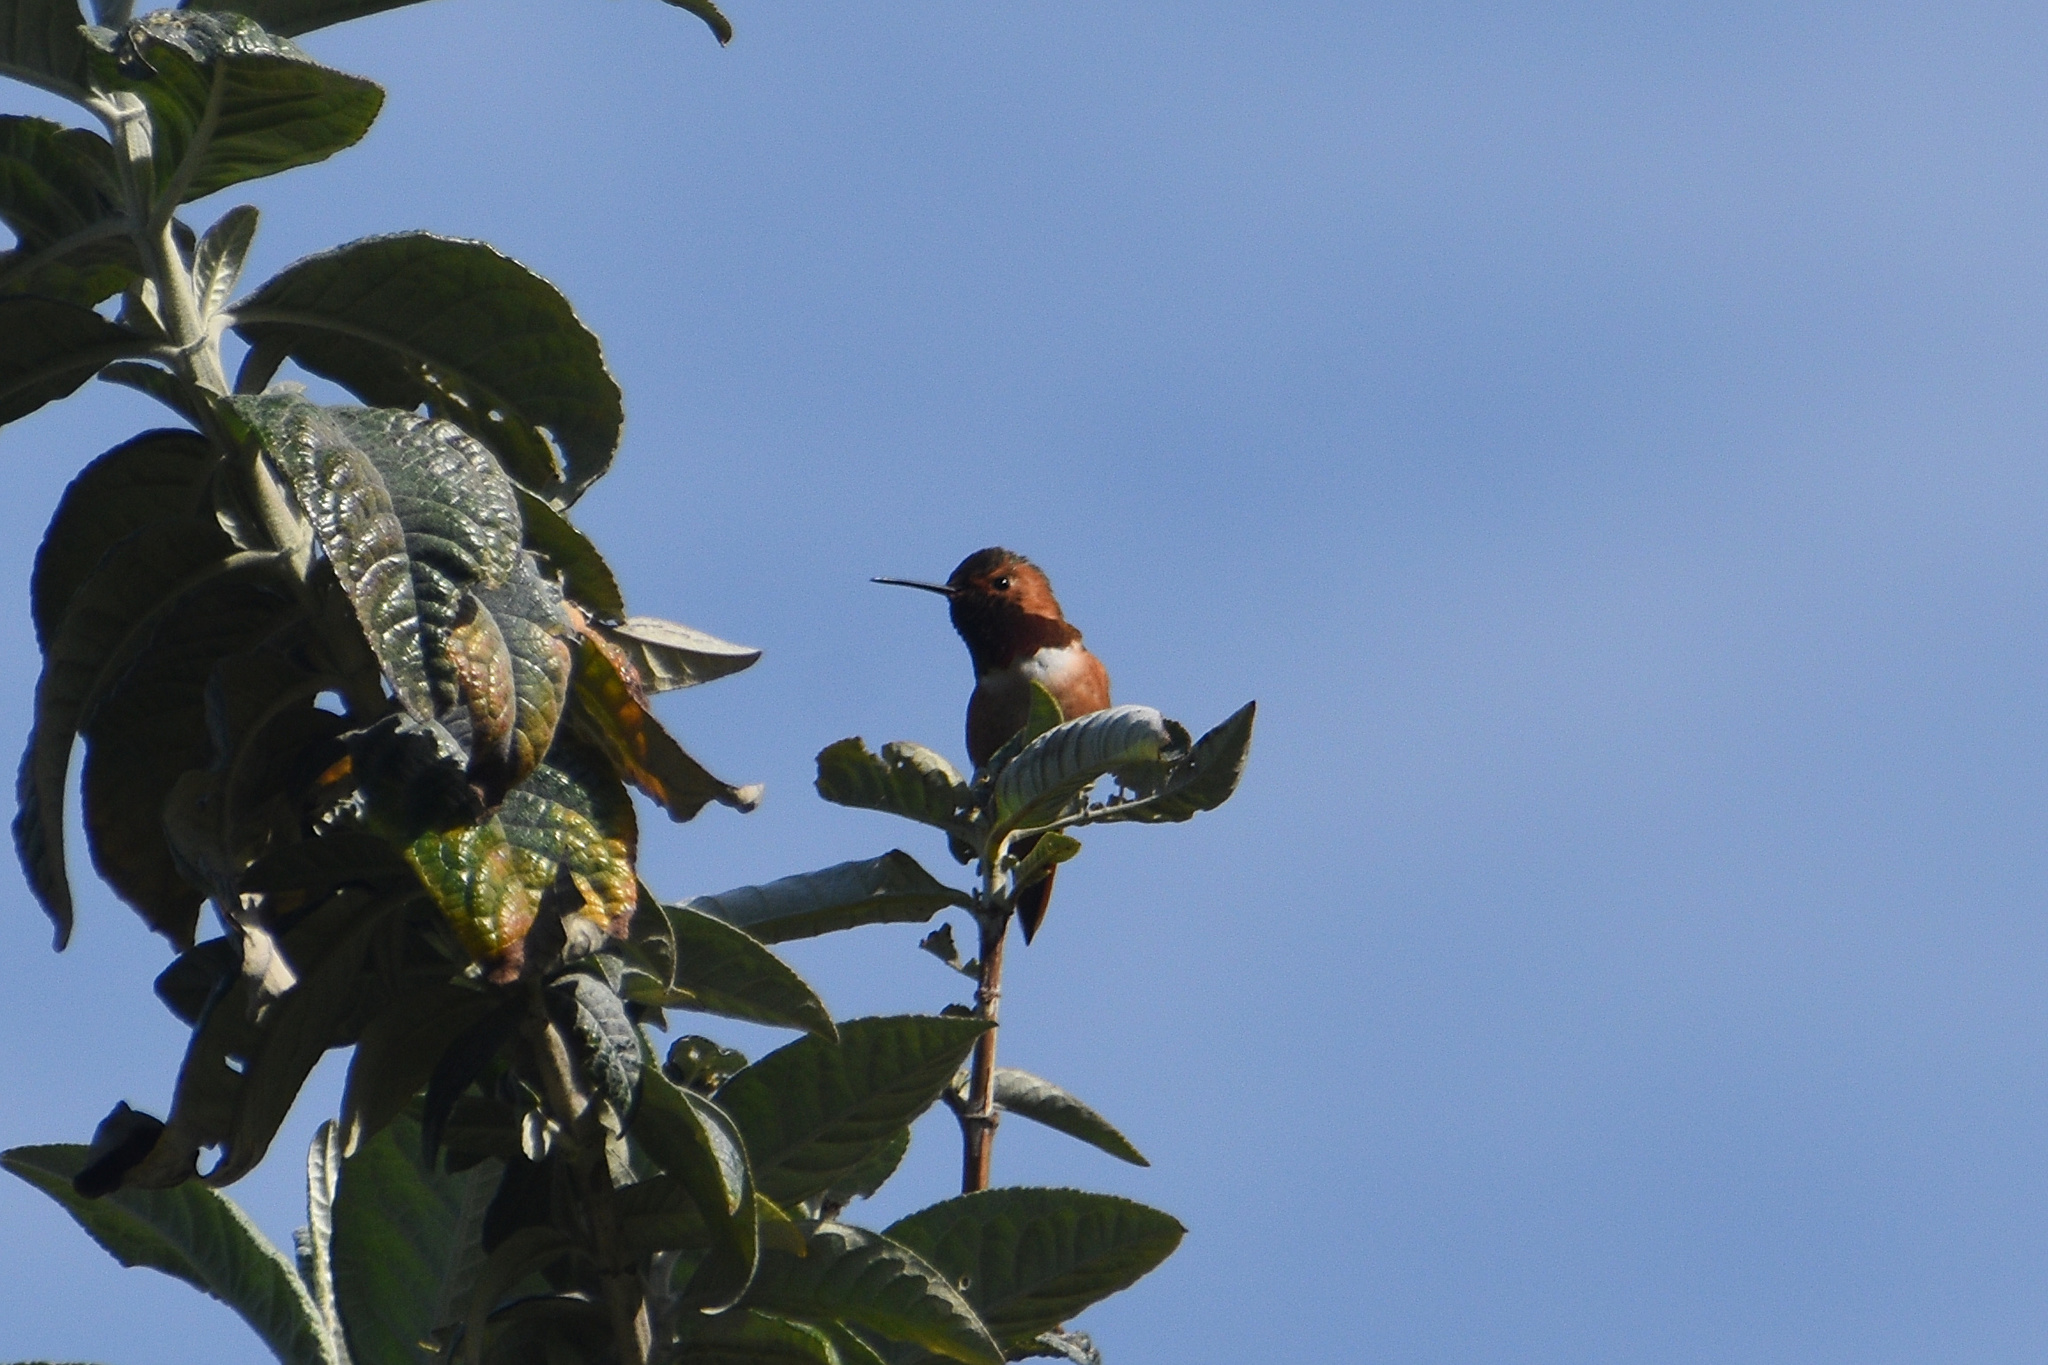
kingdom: Animalia
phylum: Chordata
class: Aves
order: Apodiformes
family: Trochilidae
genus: Selasphorus
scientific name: Selasphorus
